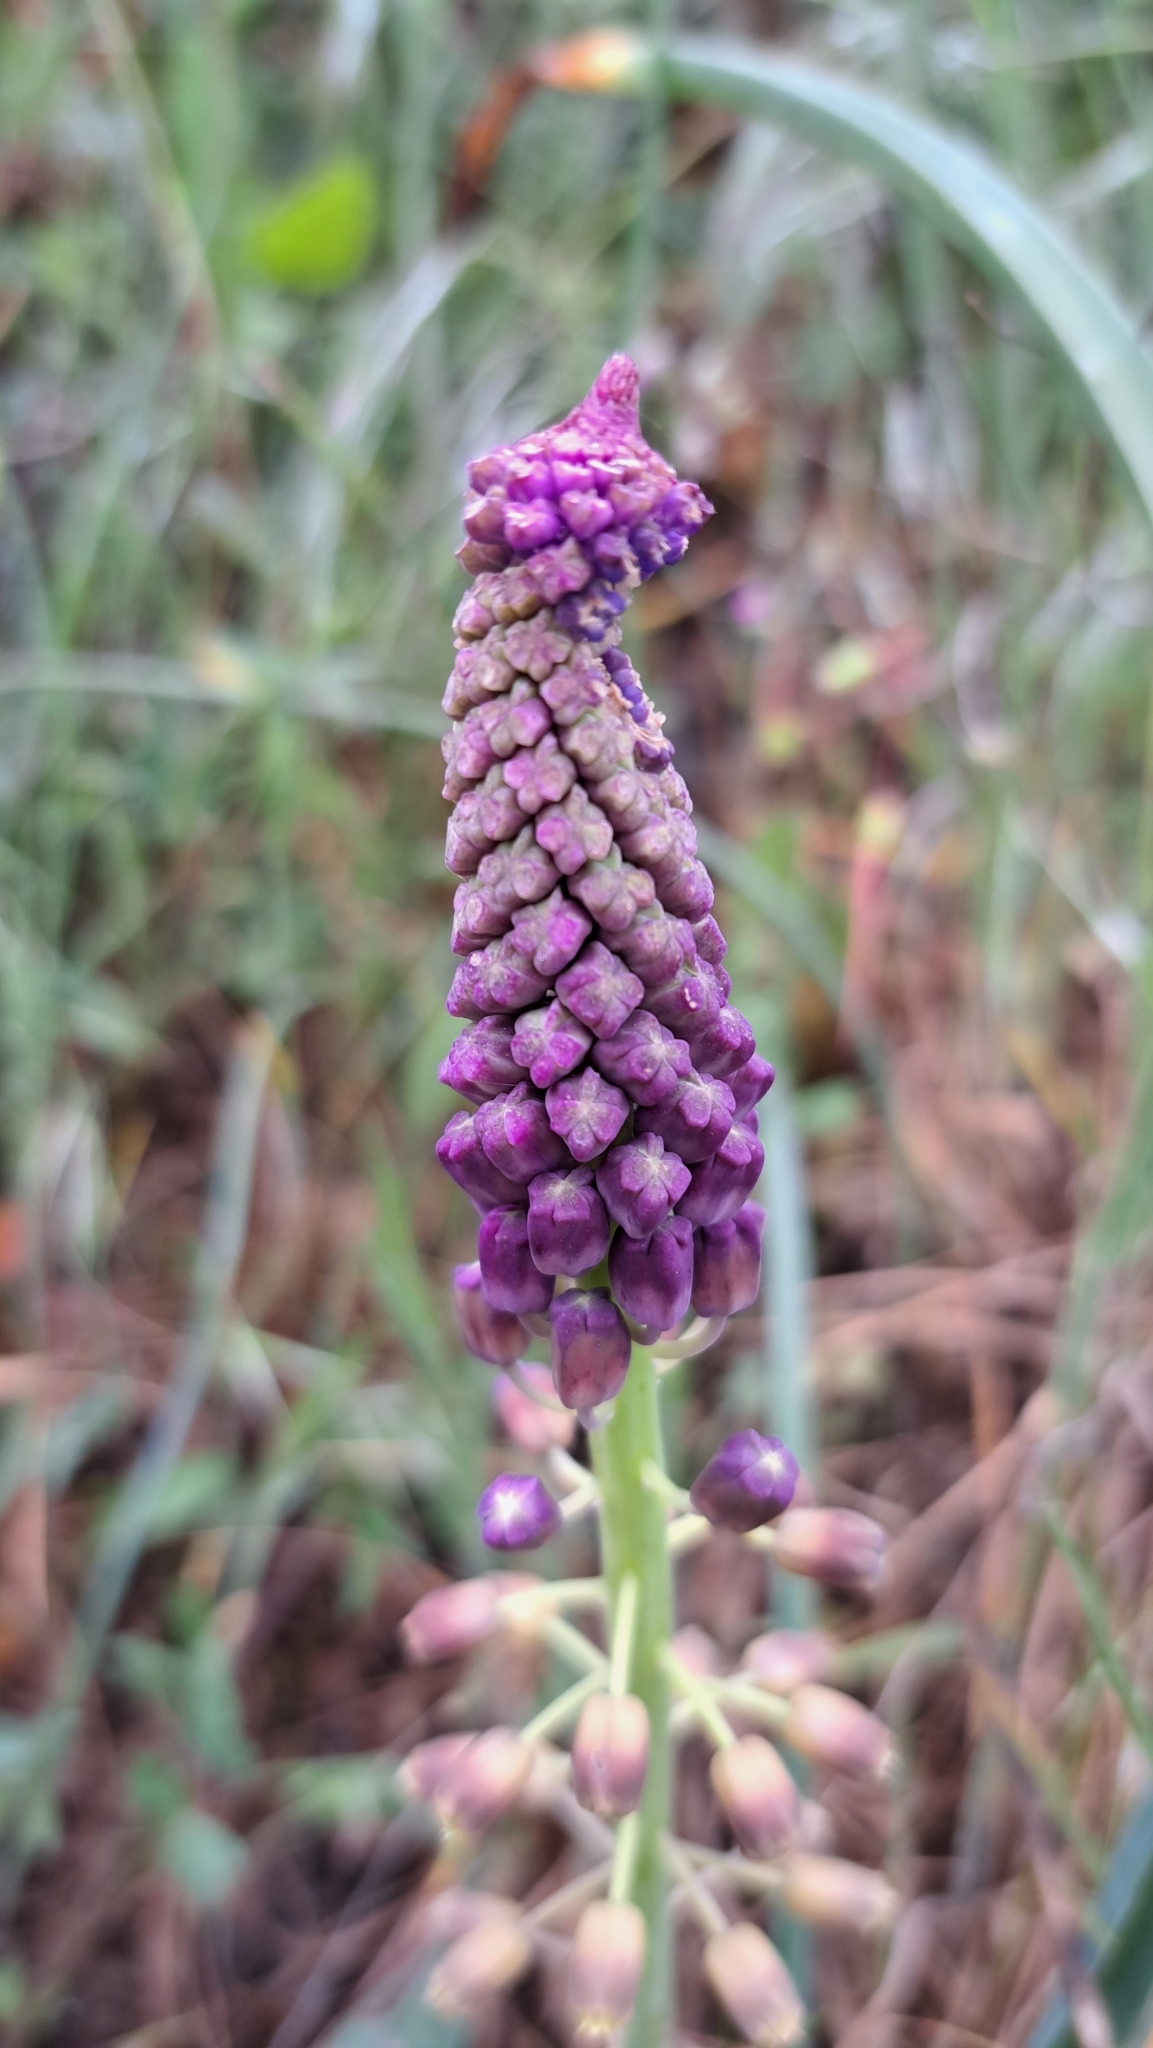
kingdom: Plantae
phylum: Tracheophyta
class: Liliopsida
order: Asparagales
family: Asparagaceae
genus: Muscari
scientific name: Muscari comosum
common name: Tassel hyacinth
